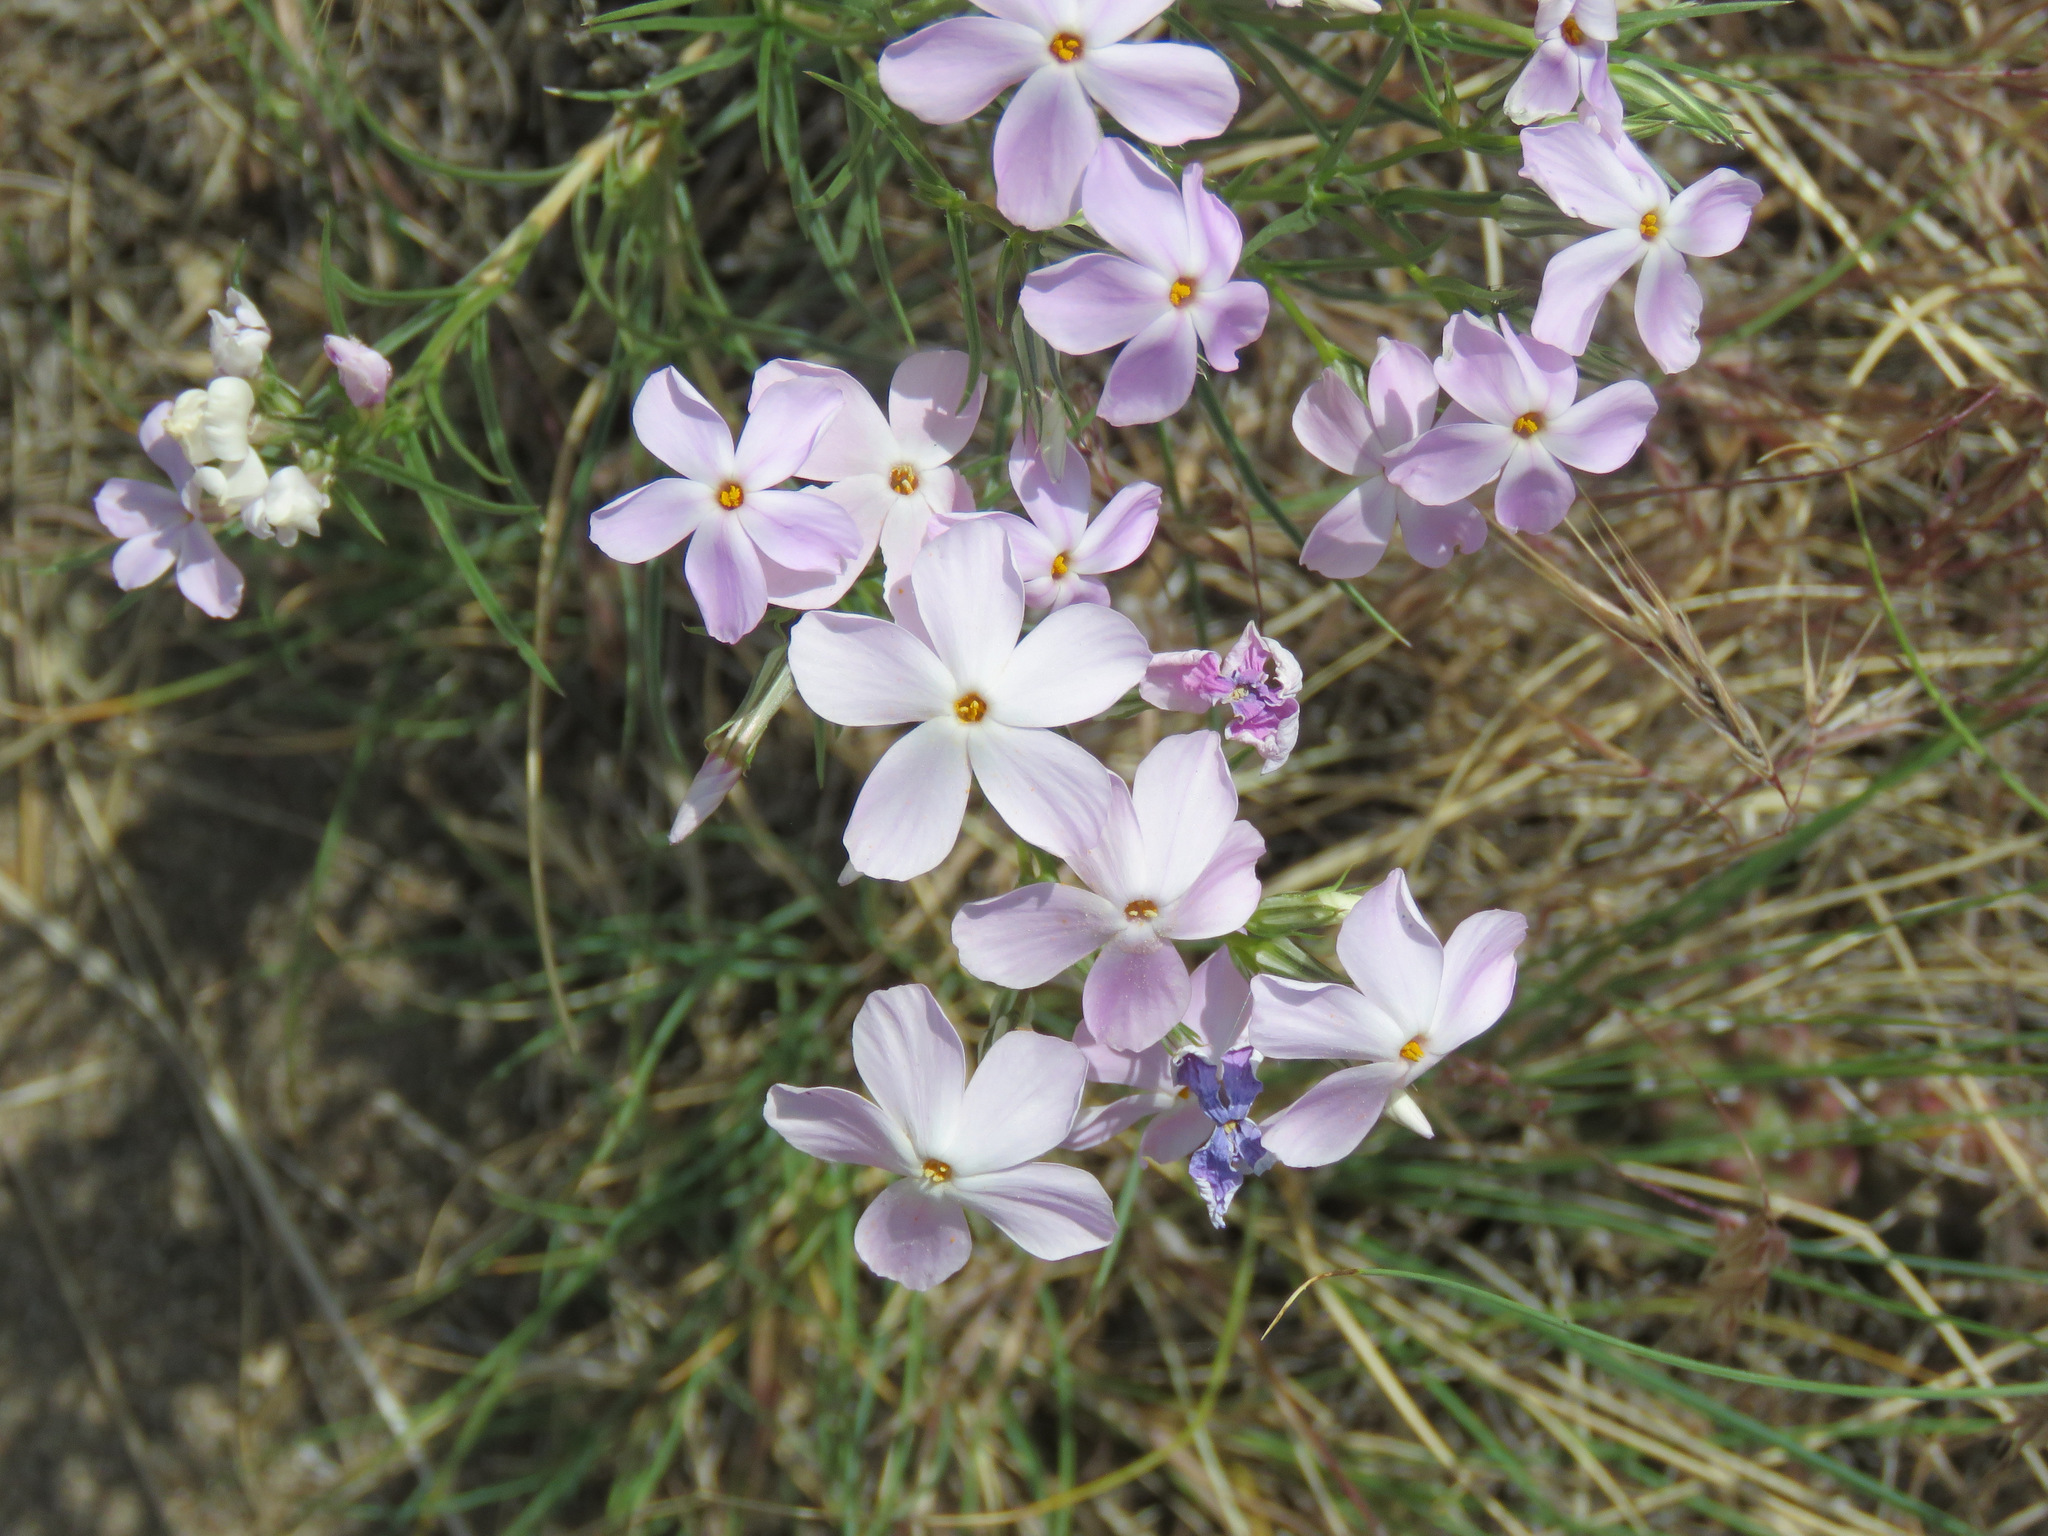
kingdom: Plantae
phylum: Tracheophyta
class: Magnoliopsida
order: Ericales
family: Polemoniaceae
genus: Phlox
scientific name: Phlox longifolia
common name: Longleaf phlox
